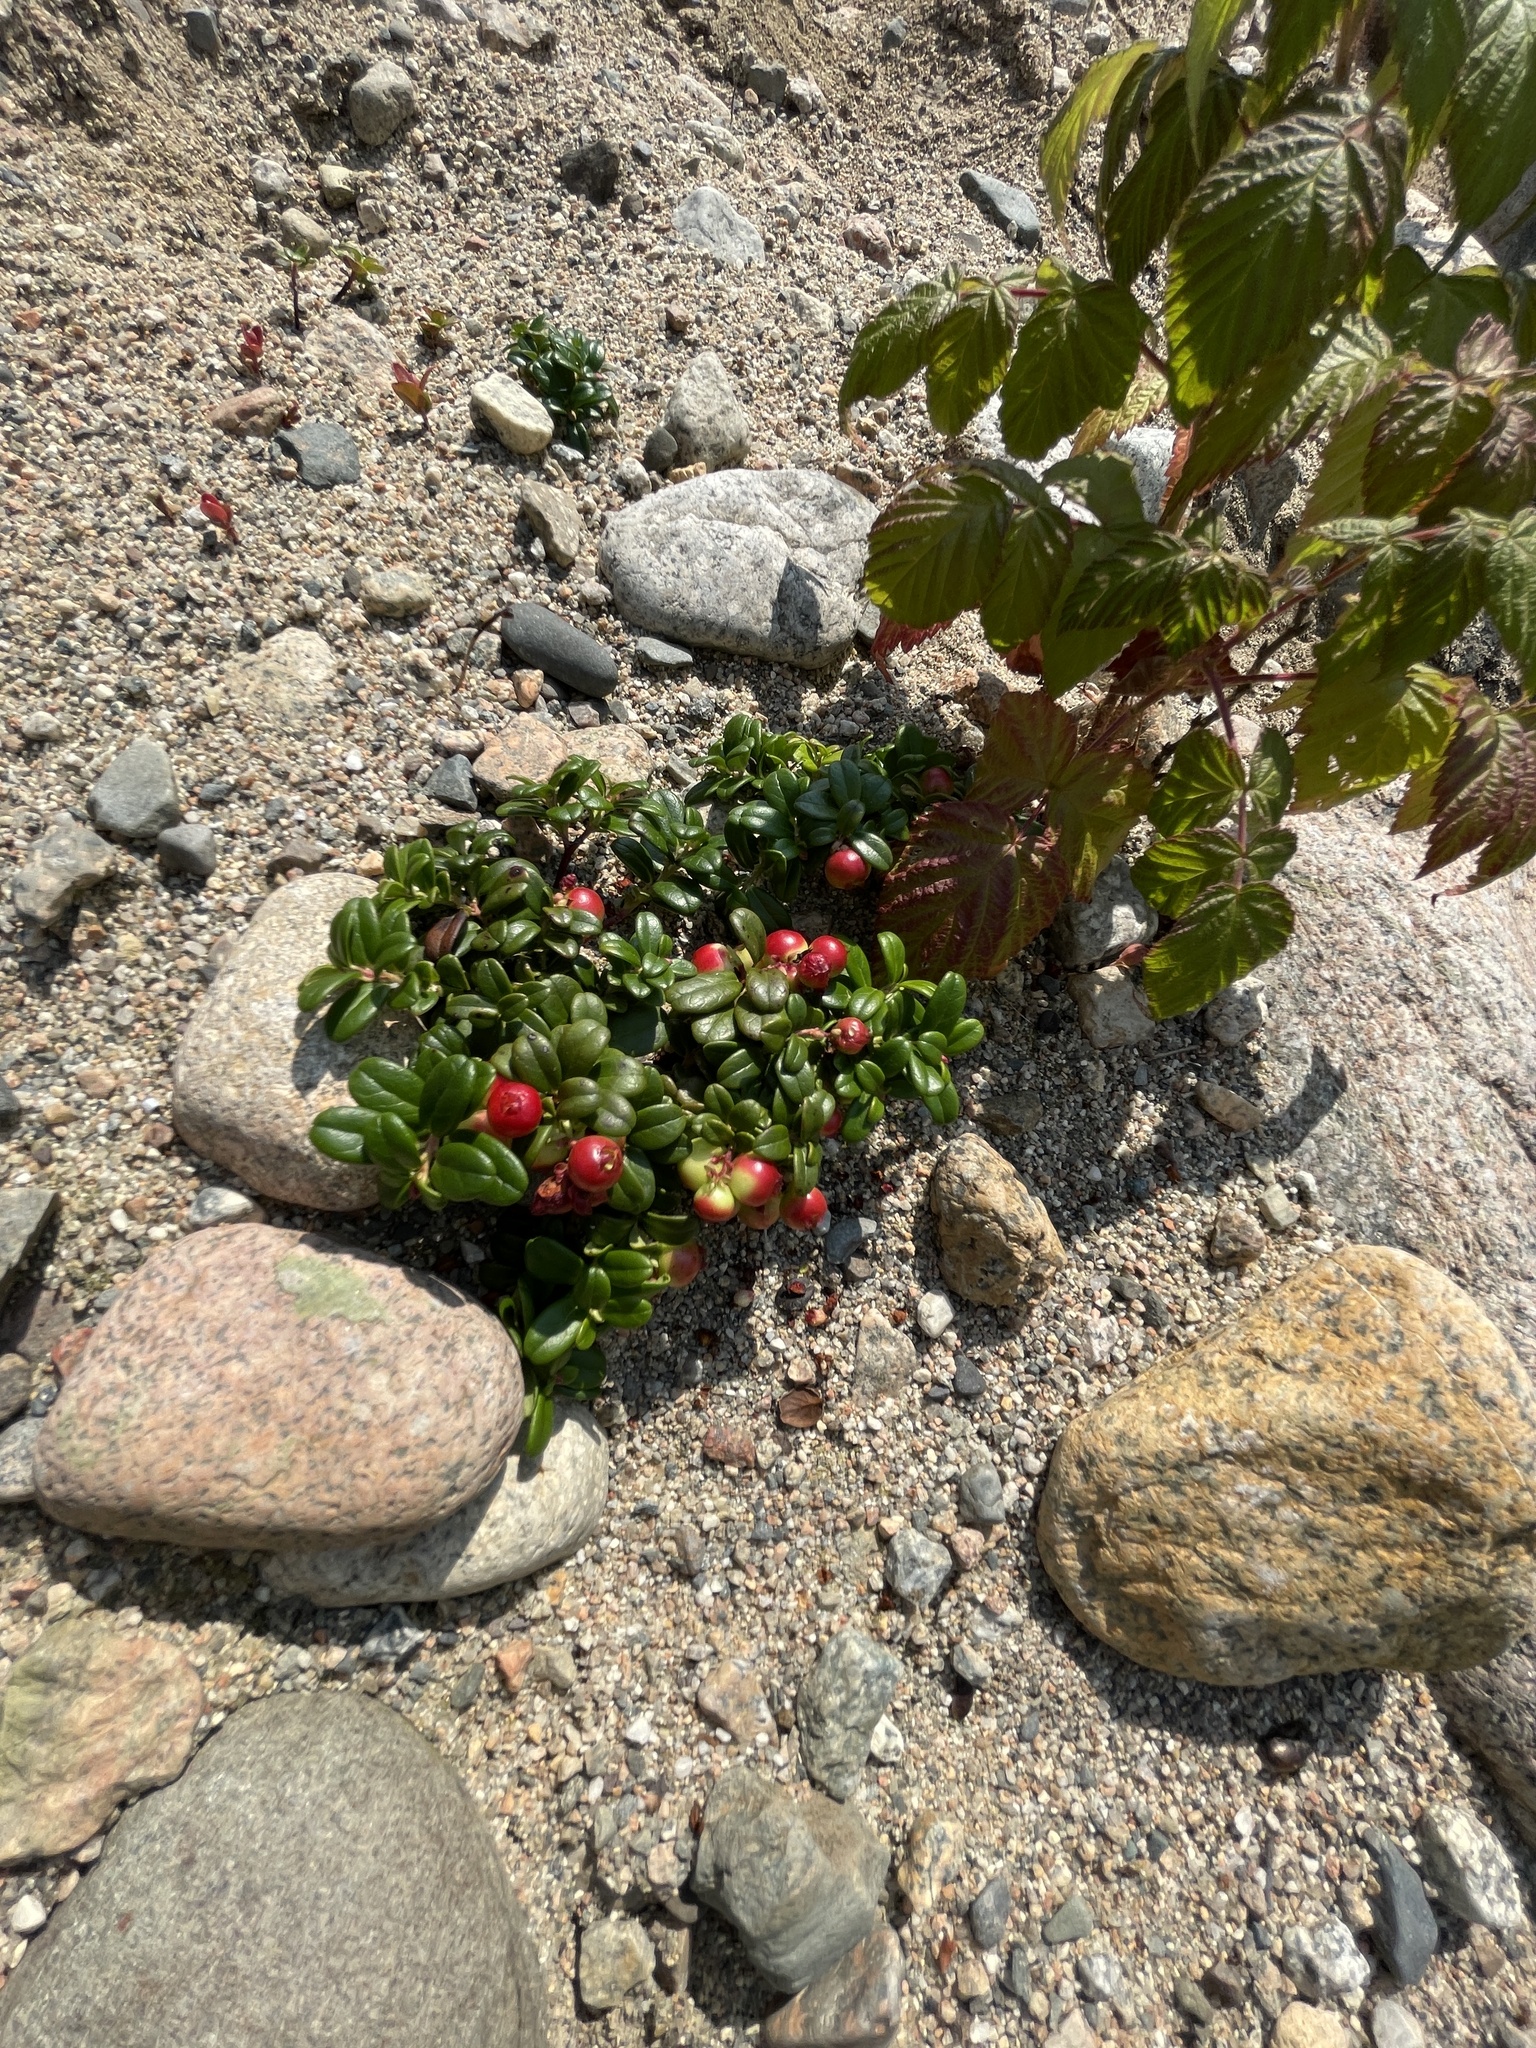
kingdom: Plantae
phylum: Tracheophyta
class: Magnoliopsida
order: Ericales
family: Ericaceae
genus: Vaccinium
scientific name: Vaccinium vitis-idaea
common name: Cowberry
